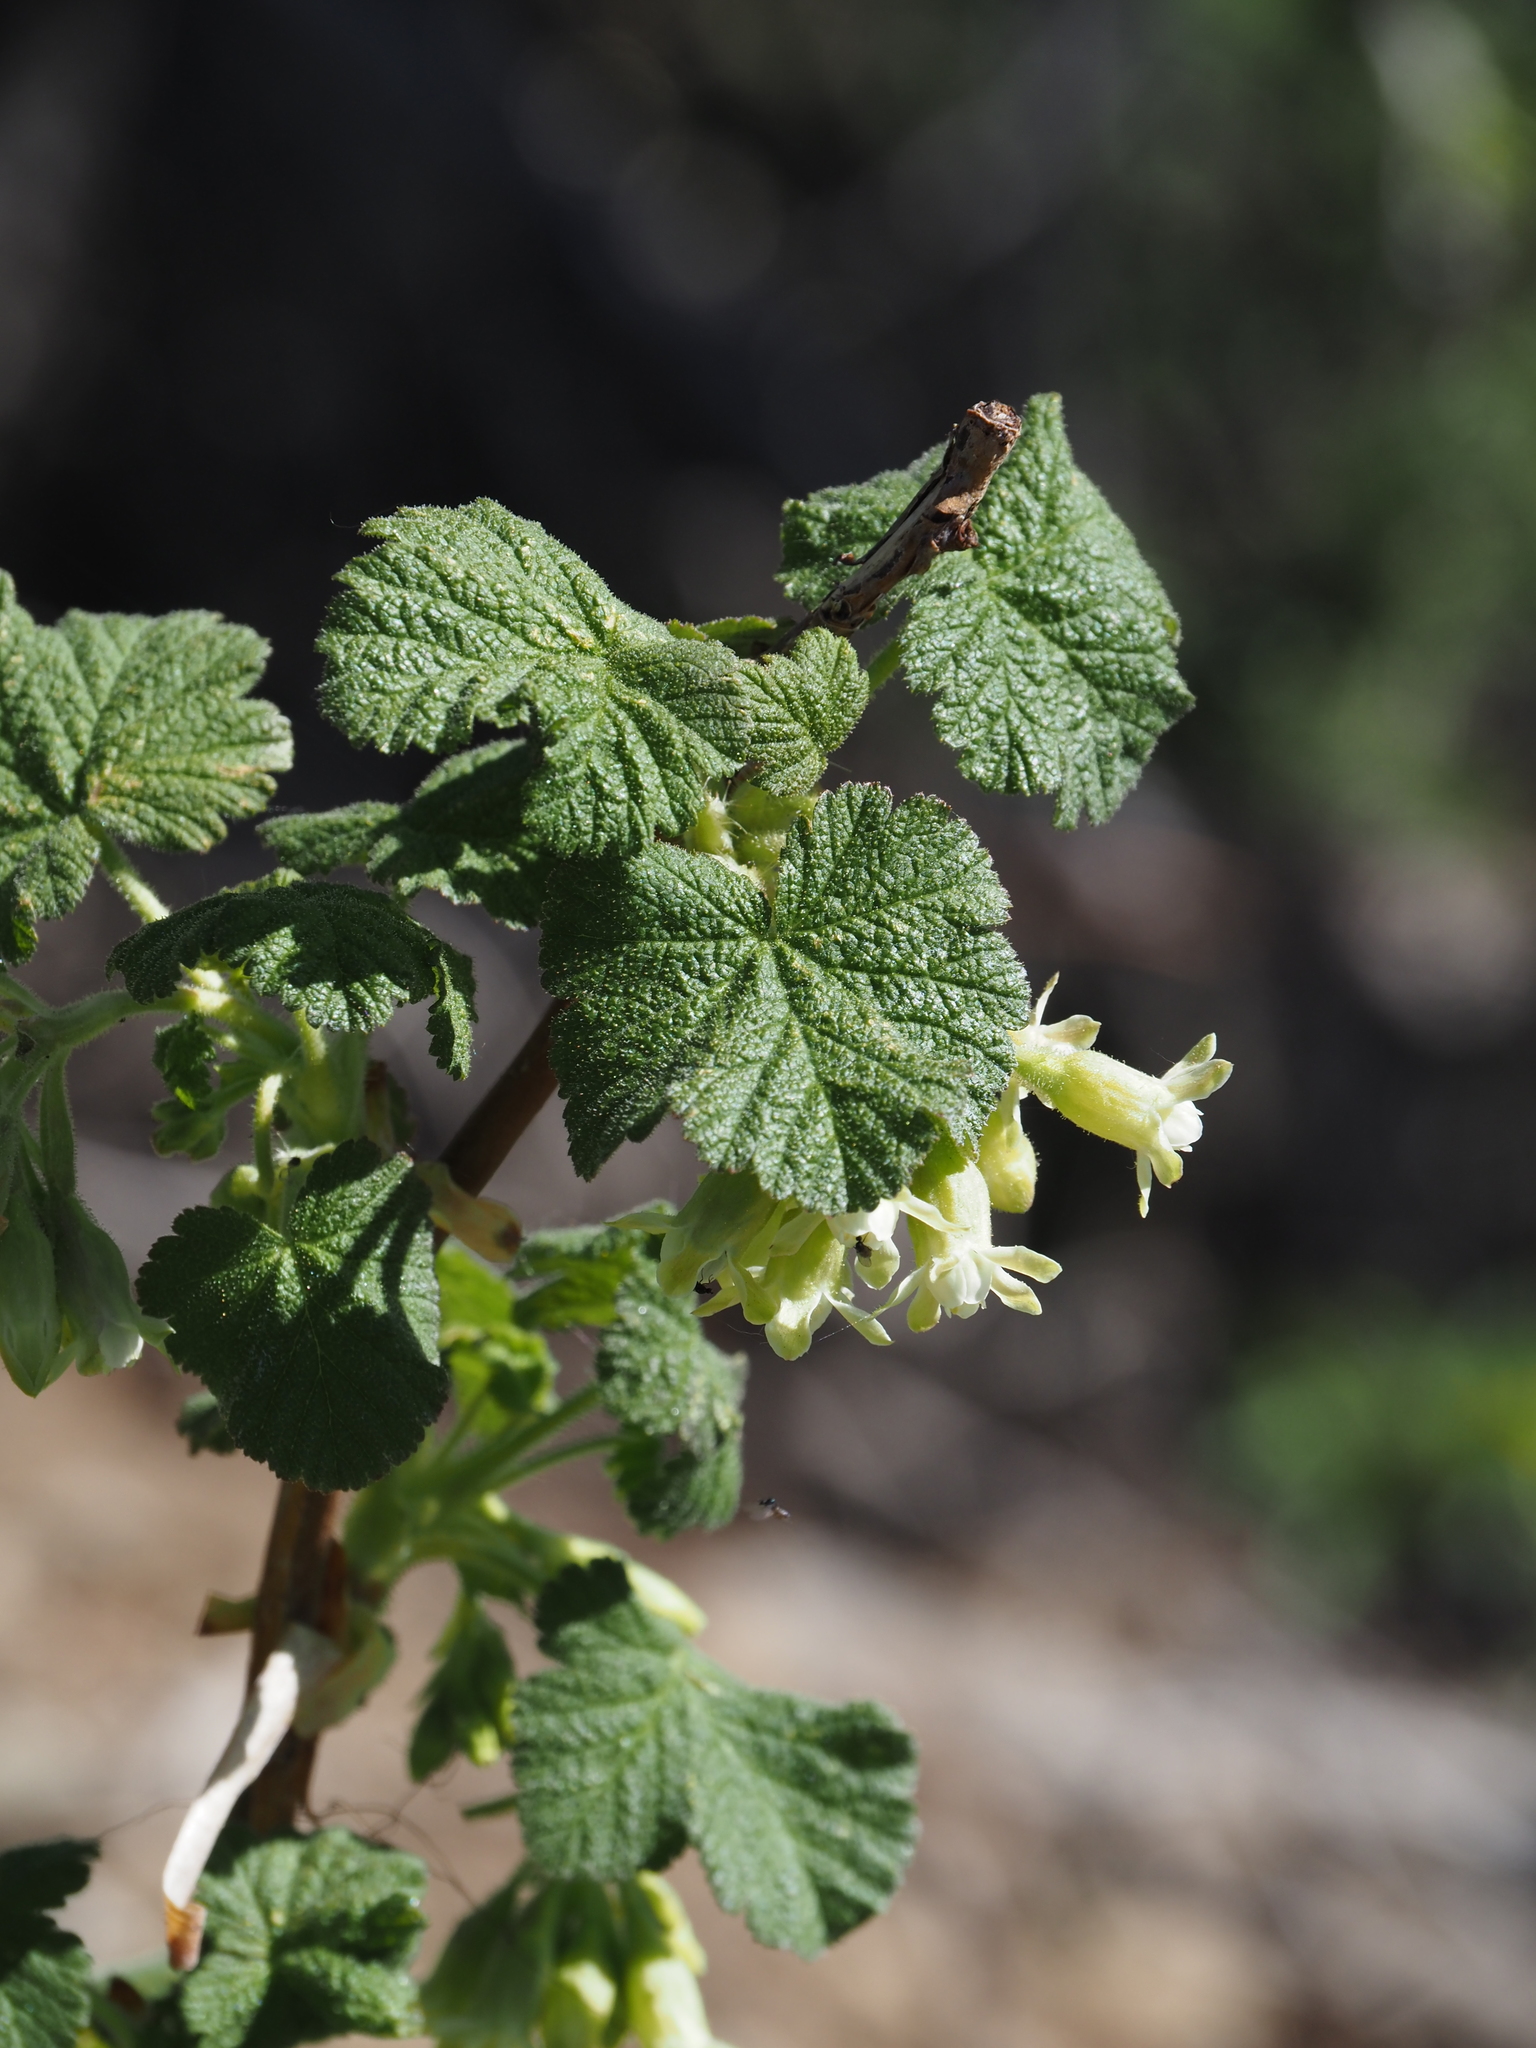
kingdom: Plantae
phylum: Tracheophyta
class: Magnoliopsida
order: Saxifragales
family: Grossulariaceae
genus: Ribes
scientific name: Ribes viscosissimum
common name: Sticky currant
